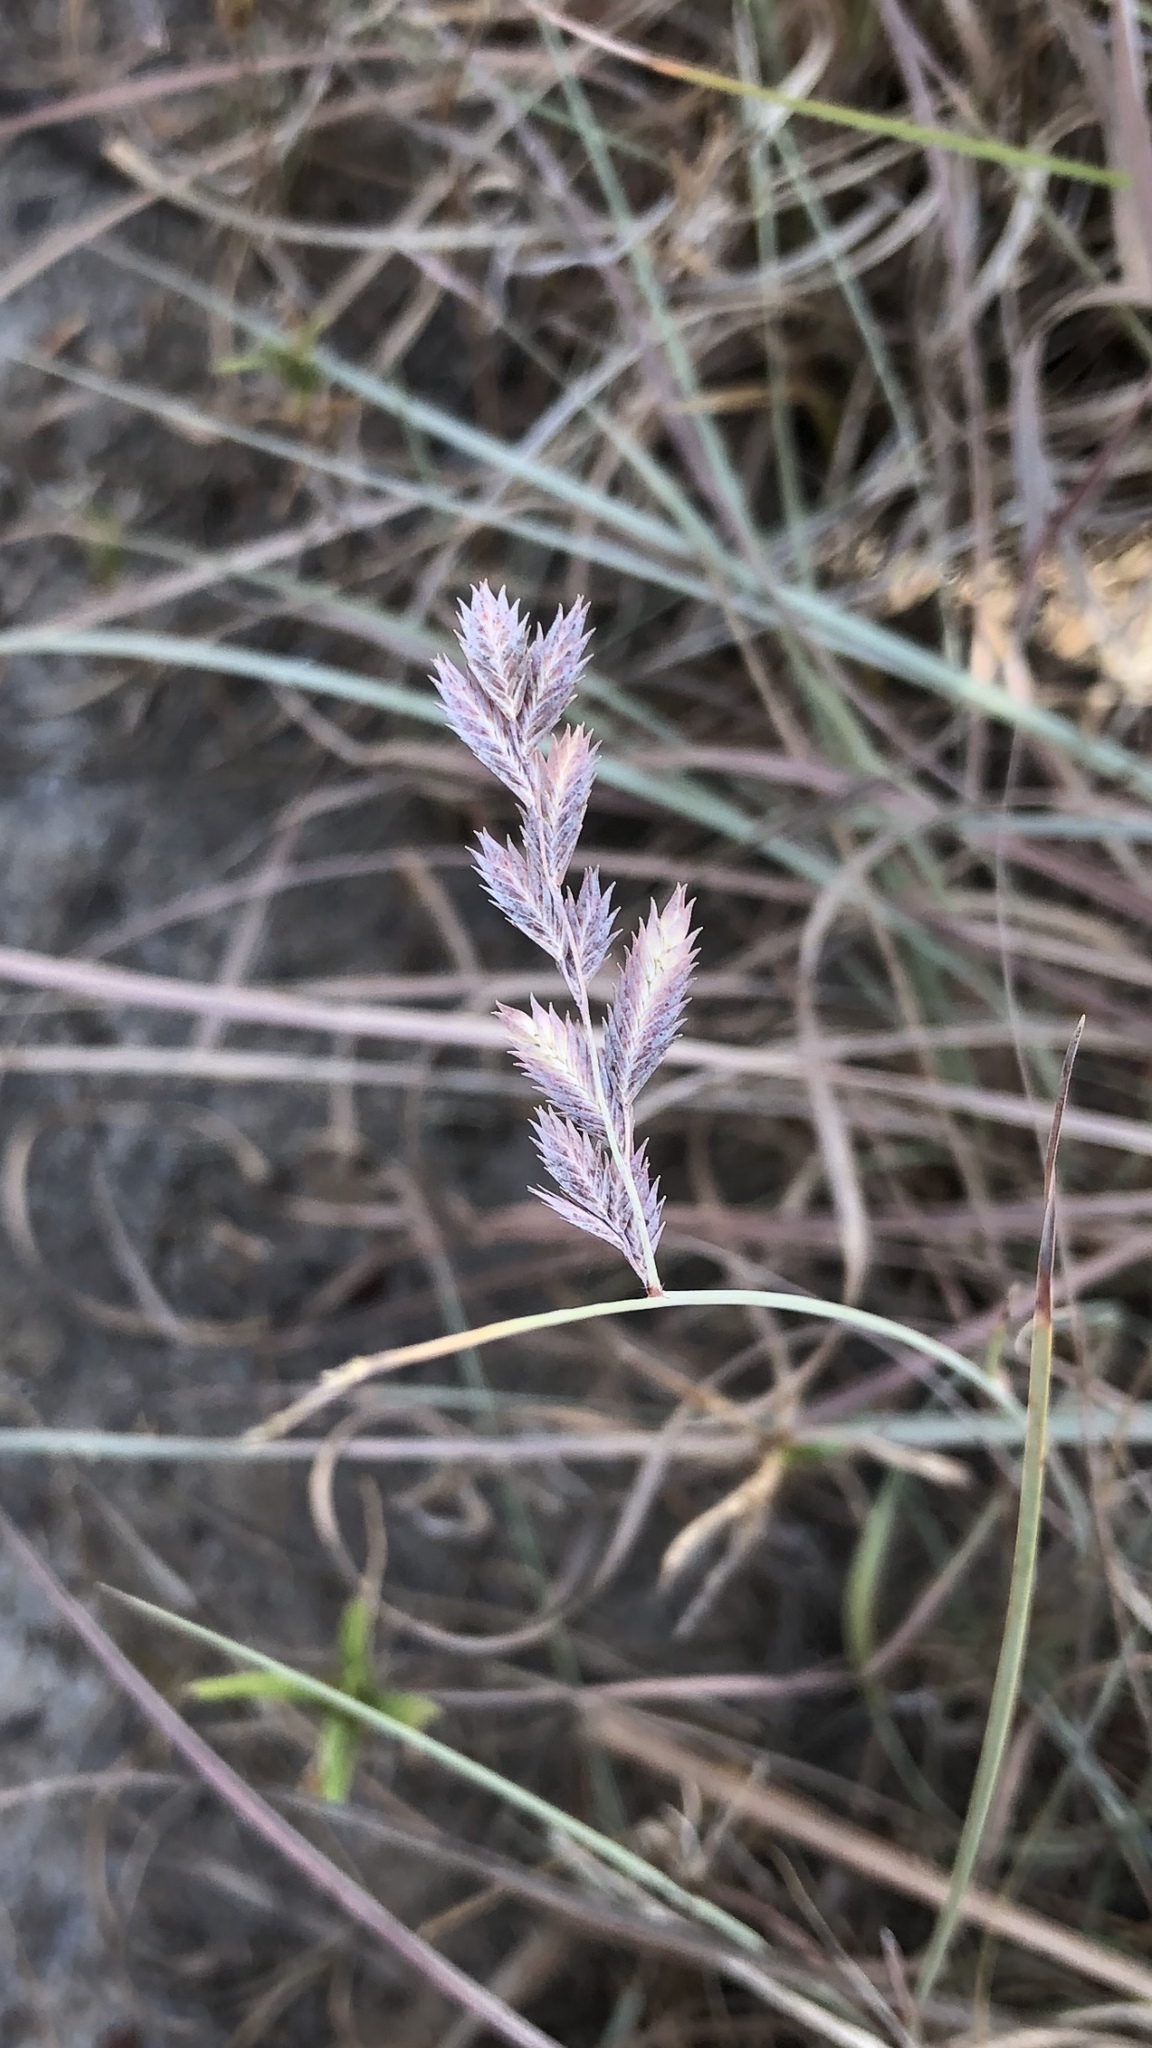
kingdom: Plantae
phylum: Tracheophyta
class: Liliopsida
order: Poales
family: Poaceae
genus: Eragrostis
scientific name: Eragrostis secundiflora
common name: Red love grass
